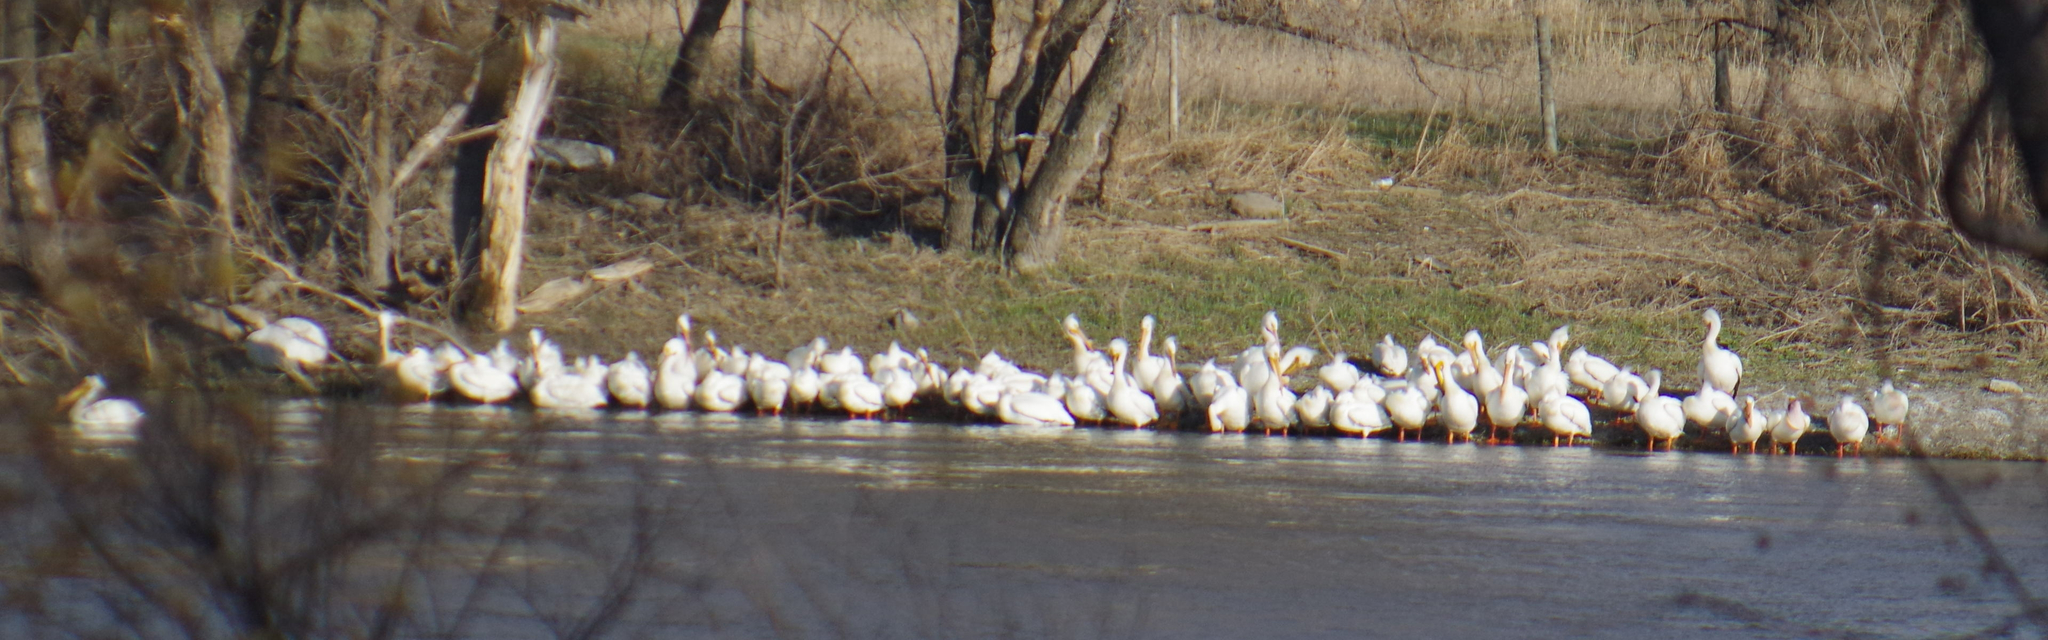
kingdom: Animalia
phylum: Chordata
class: Aves
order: Pelecaniformes
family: Pelecanidae
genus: Pelecanus
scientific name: Pelecanus erythrorhynchos
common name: American white pelican
